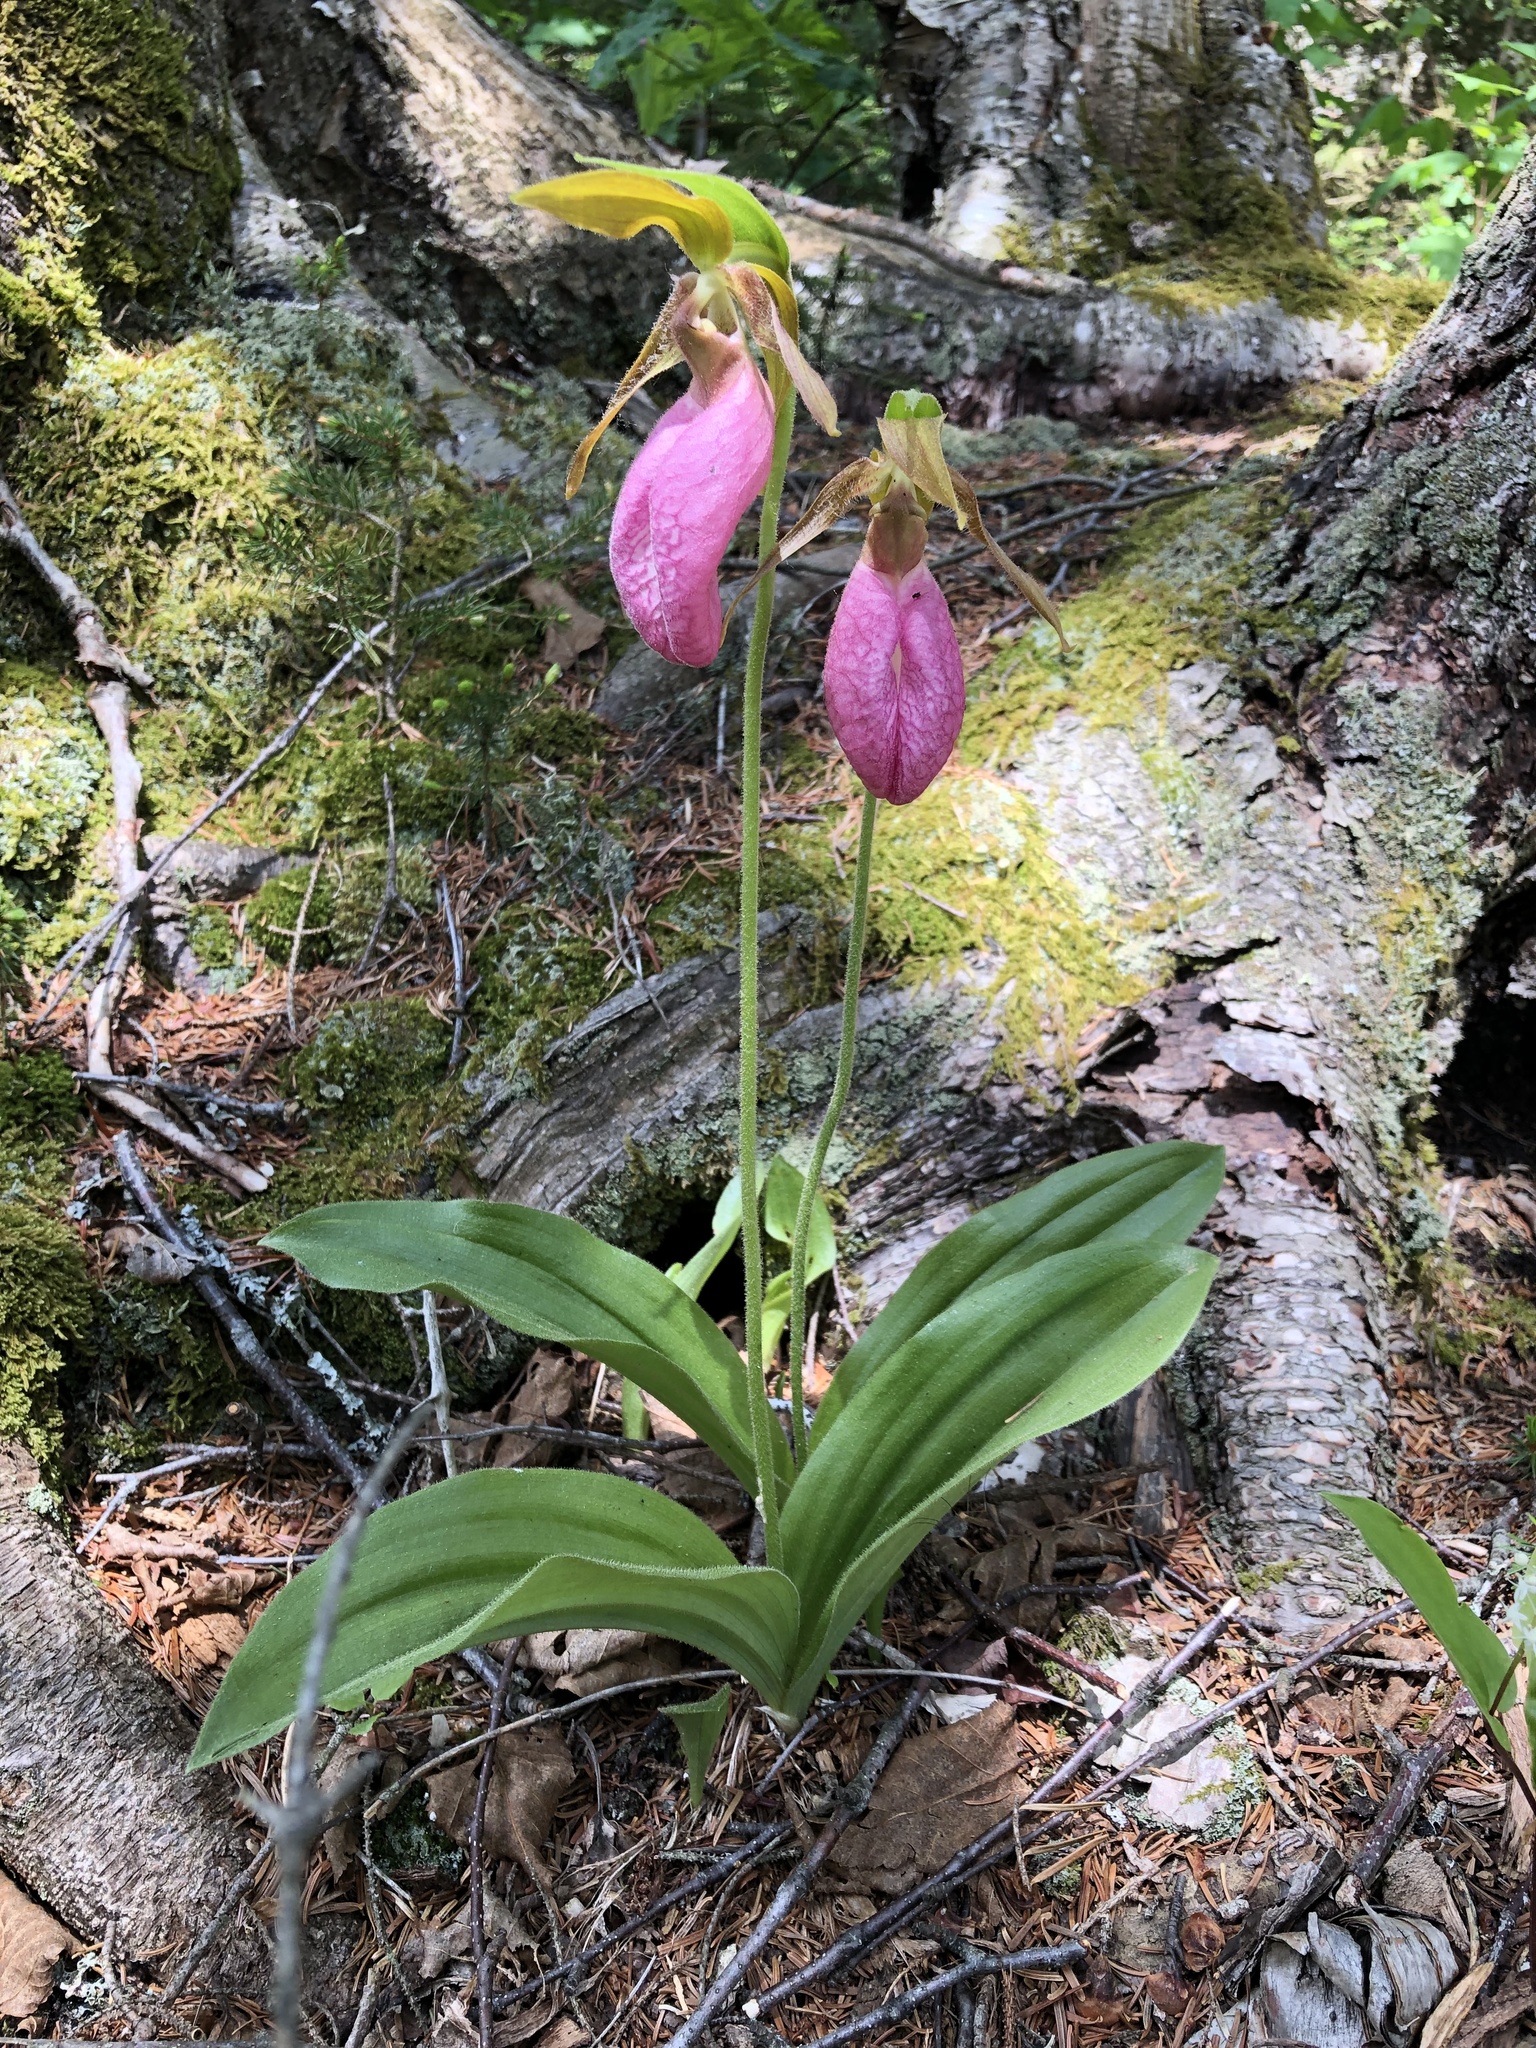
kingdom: Plantae
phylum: Tracheophyta
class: Liliopsida
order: Asparagales
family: Orchidaceae
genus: Cypripedium
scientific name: Cypripedium acaule
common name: Pink lady's-slipper
